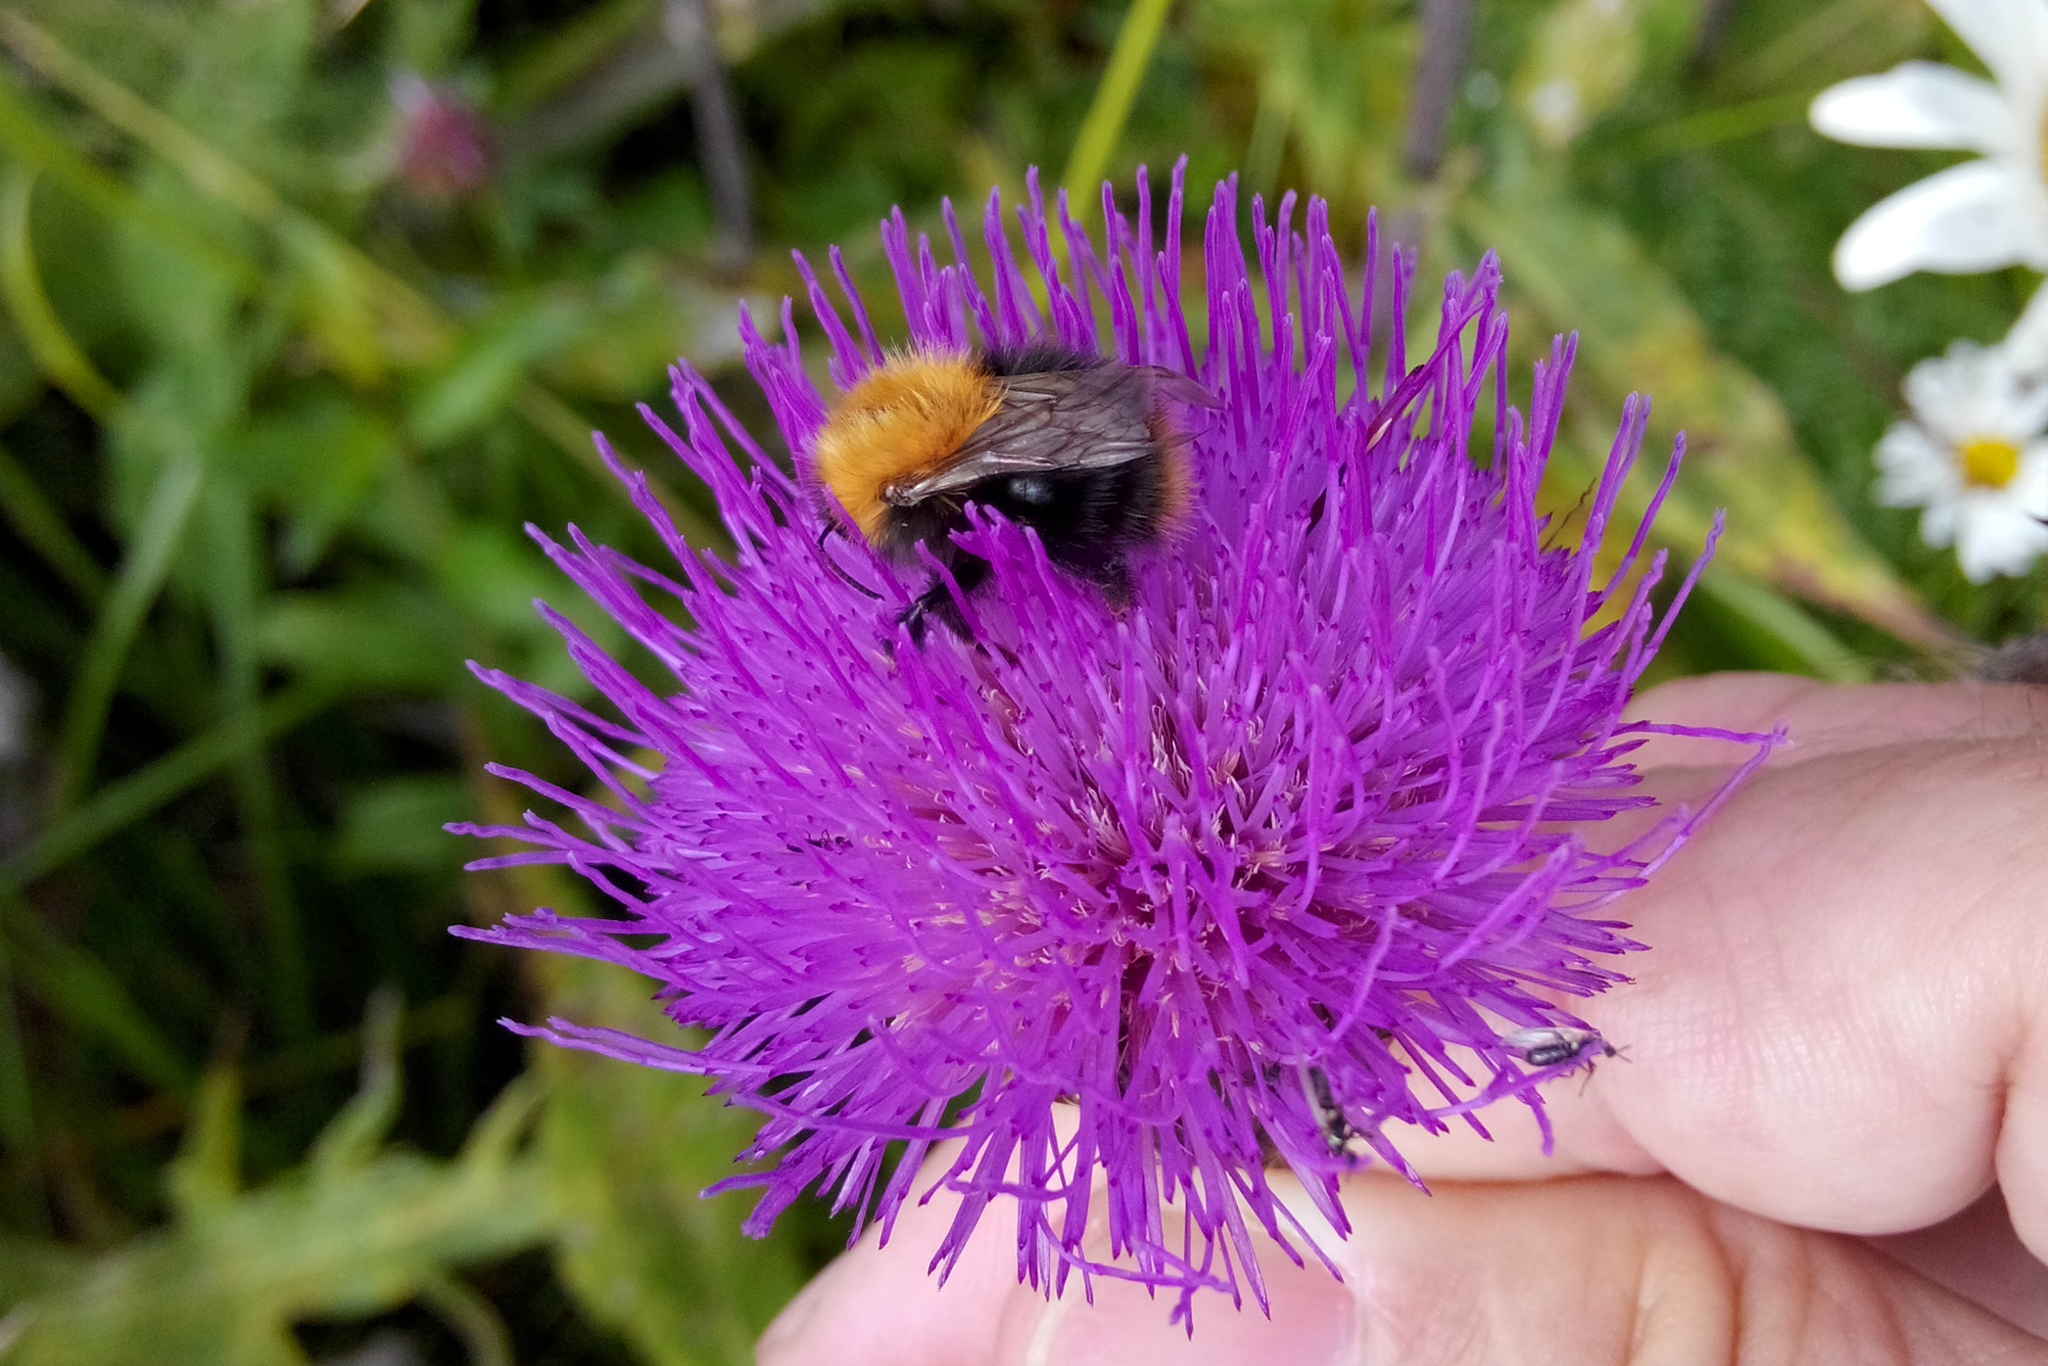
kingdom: Animalia
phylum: Arthropoda
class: Insecta
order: Hymenoptera
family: Apidae
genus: Bombus
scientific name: Bombus pascuorum
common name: Common carder bee
